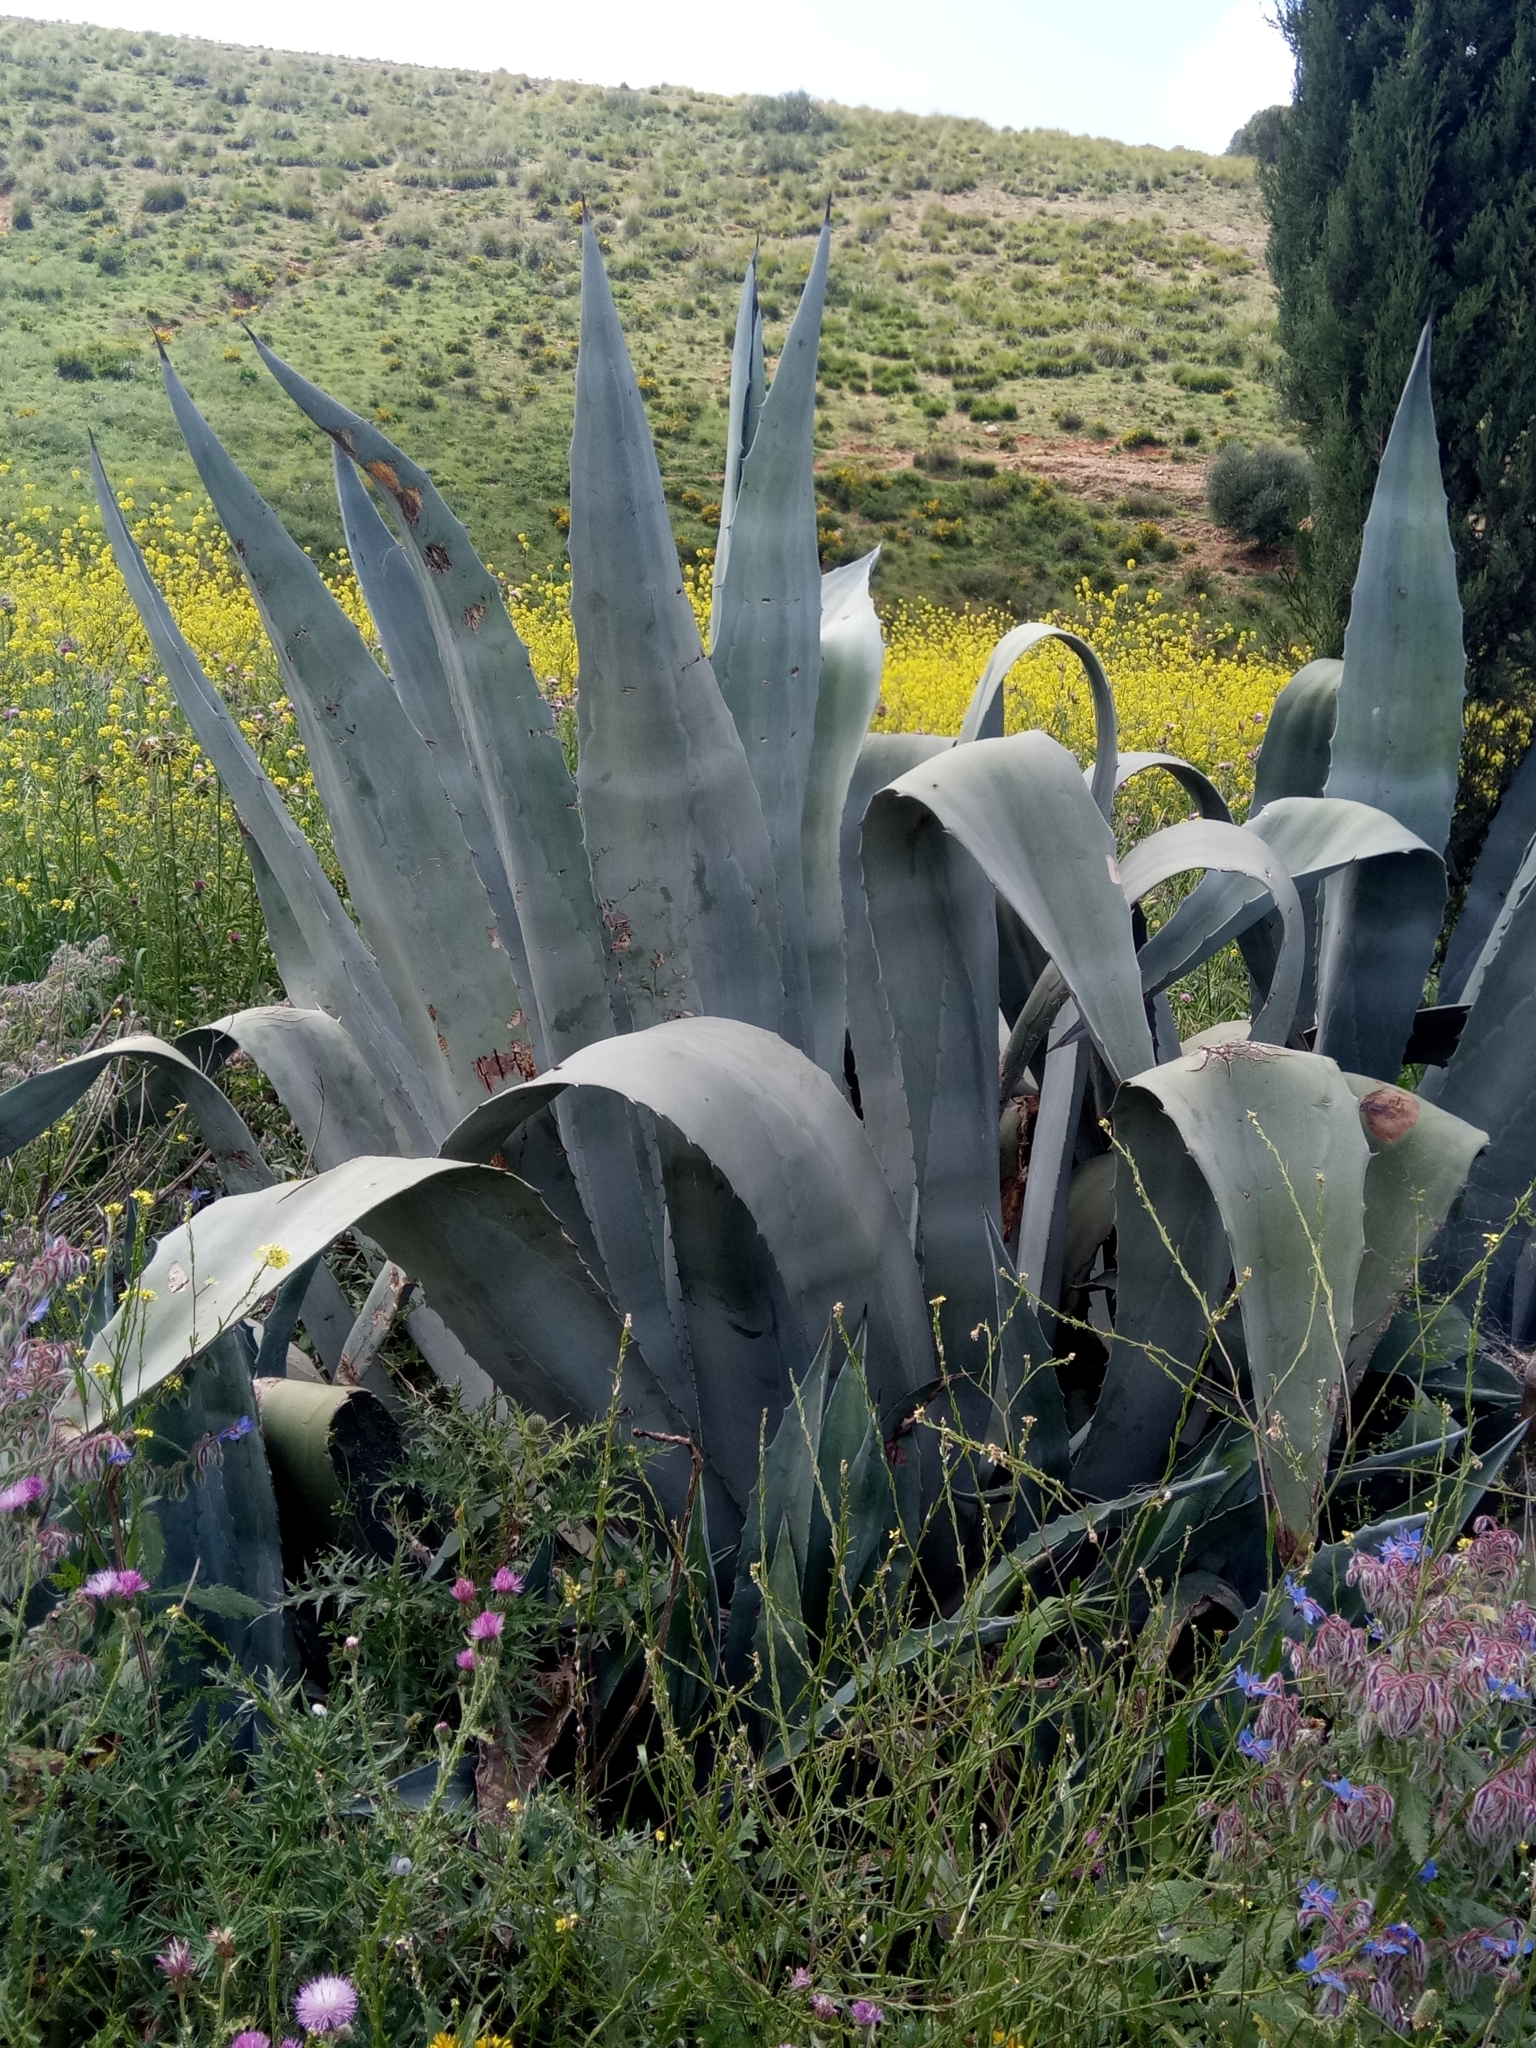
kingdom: Plantae
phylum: Tracheophyta
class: Liliopsida
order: Asparagales
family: Asparagaceae
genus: Agave
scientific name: Agave americana
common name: Centuryplant
